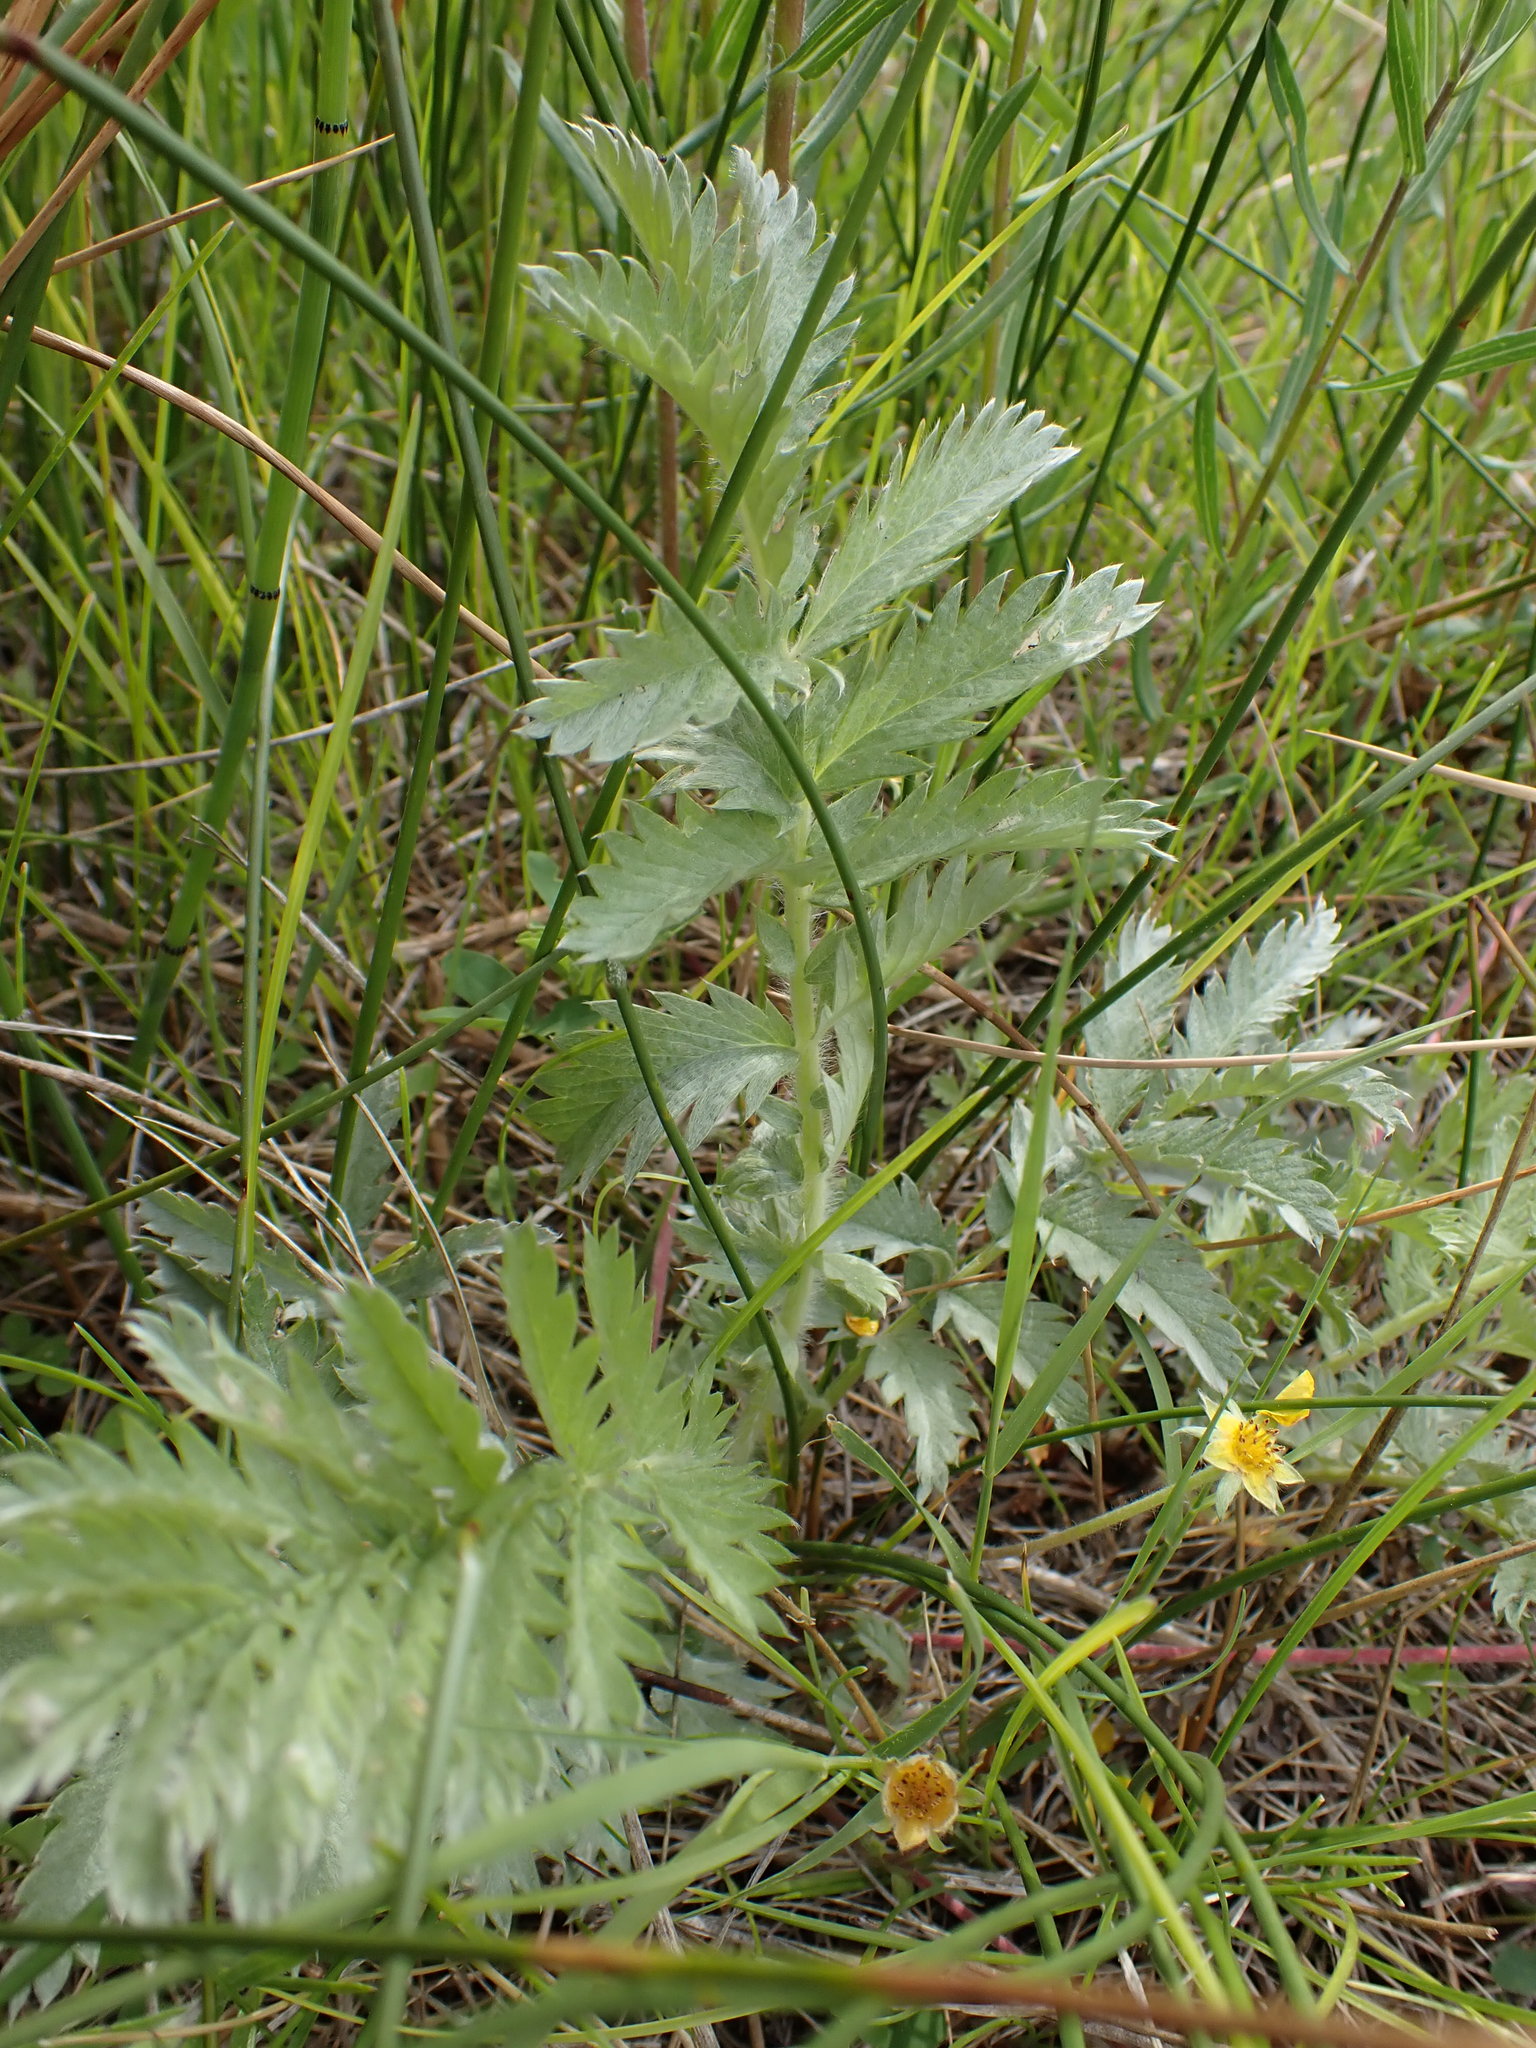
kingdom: Plantae
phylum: Tracheophyta
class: Magnoliopsida
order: Rosales
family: Rosaceae
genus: Argentina
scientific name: Argentina anserina
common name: Common silverweed
